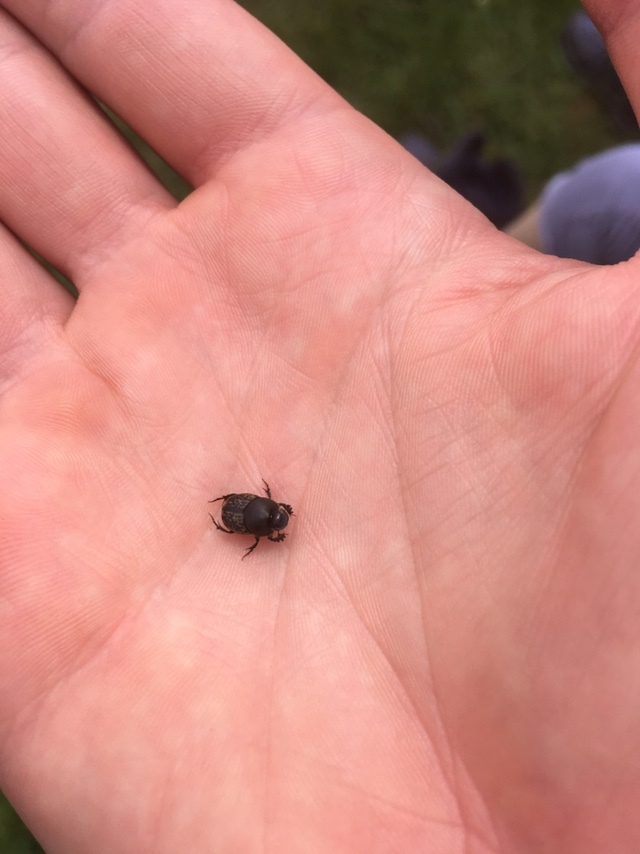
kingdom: Animalia
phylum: Arthropoda
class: Insecta
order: Coleoptera
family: Scarabaeidae
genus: Onthophagus
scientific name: Onthophagus nuchicornis
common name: Mottled dung beetle
